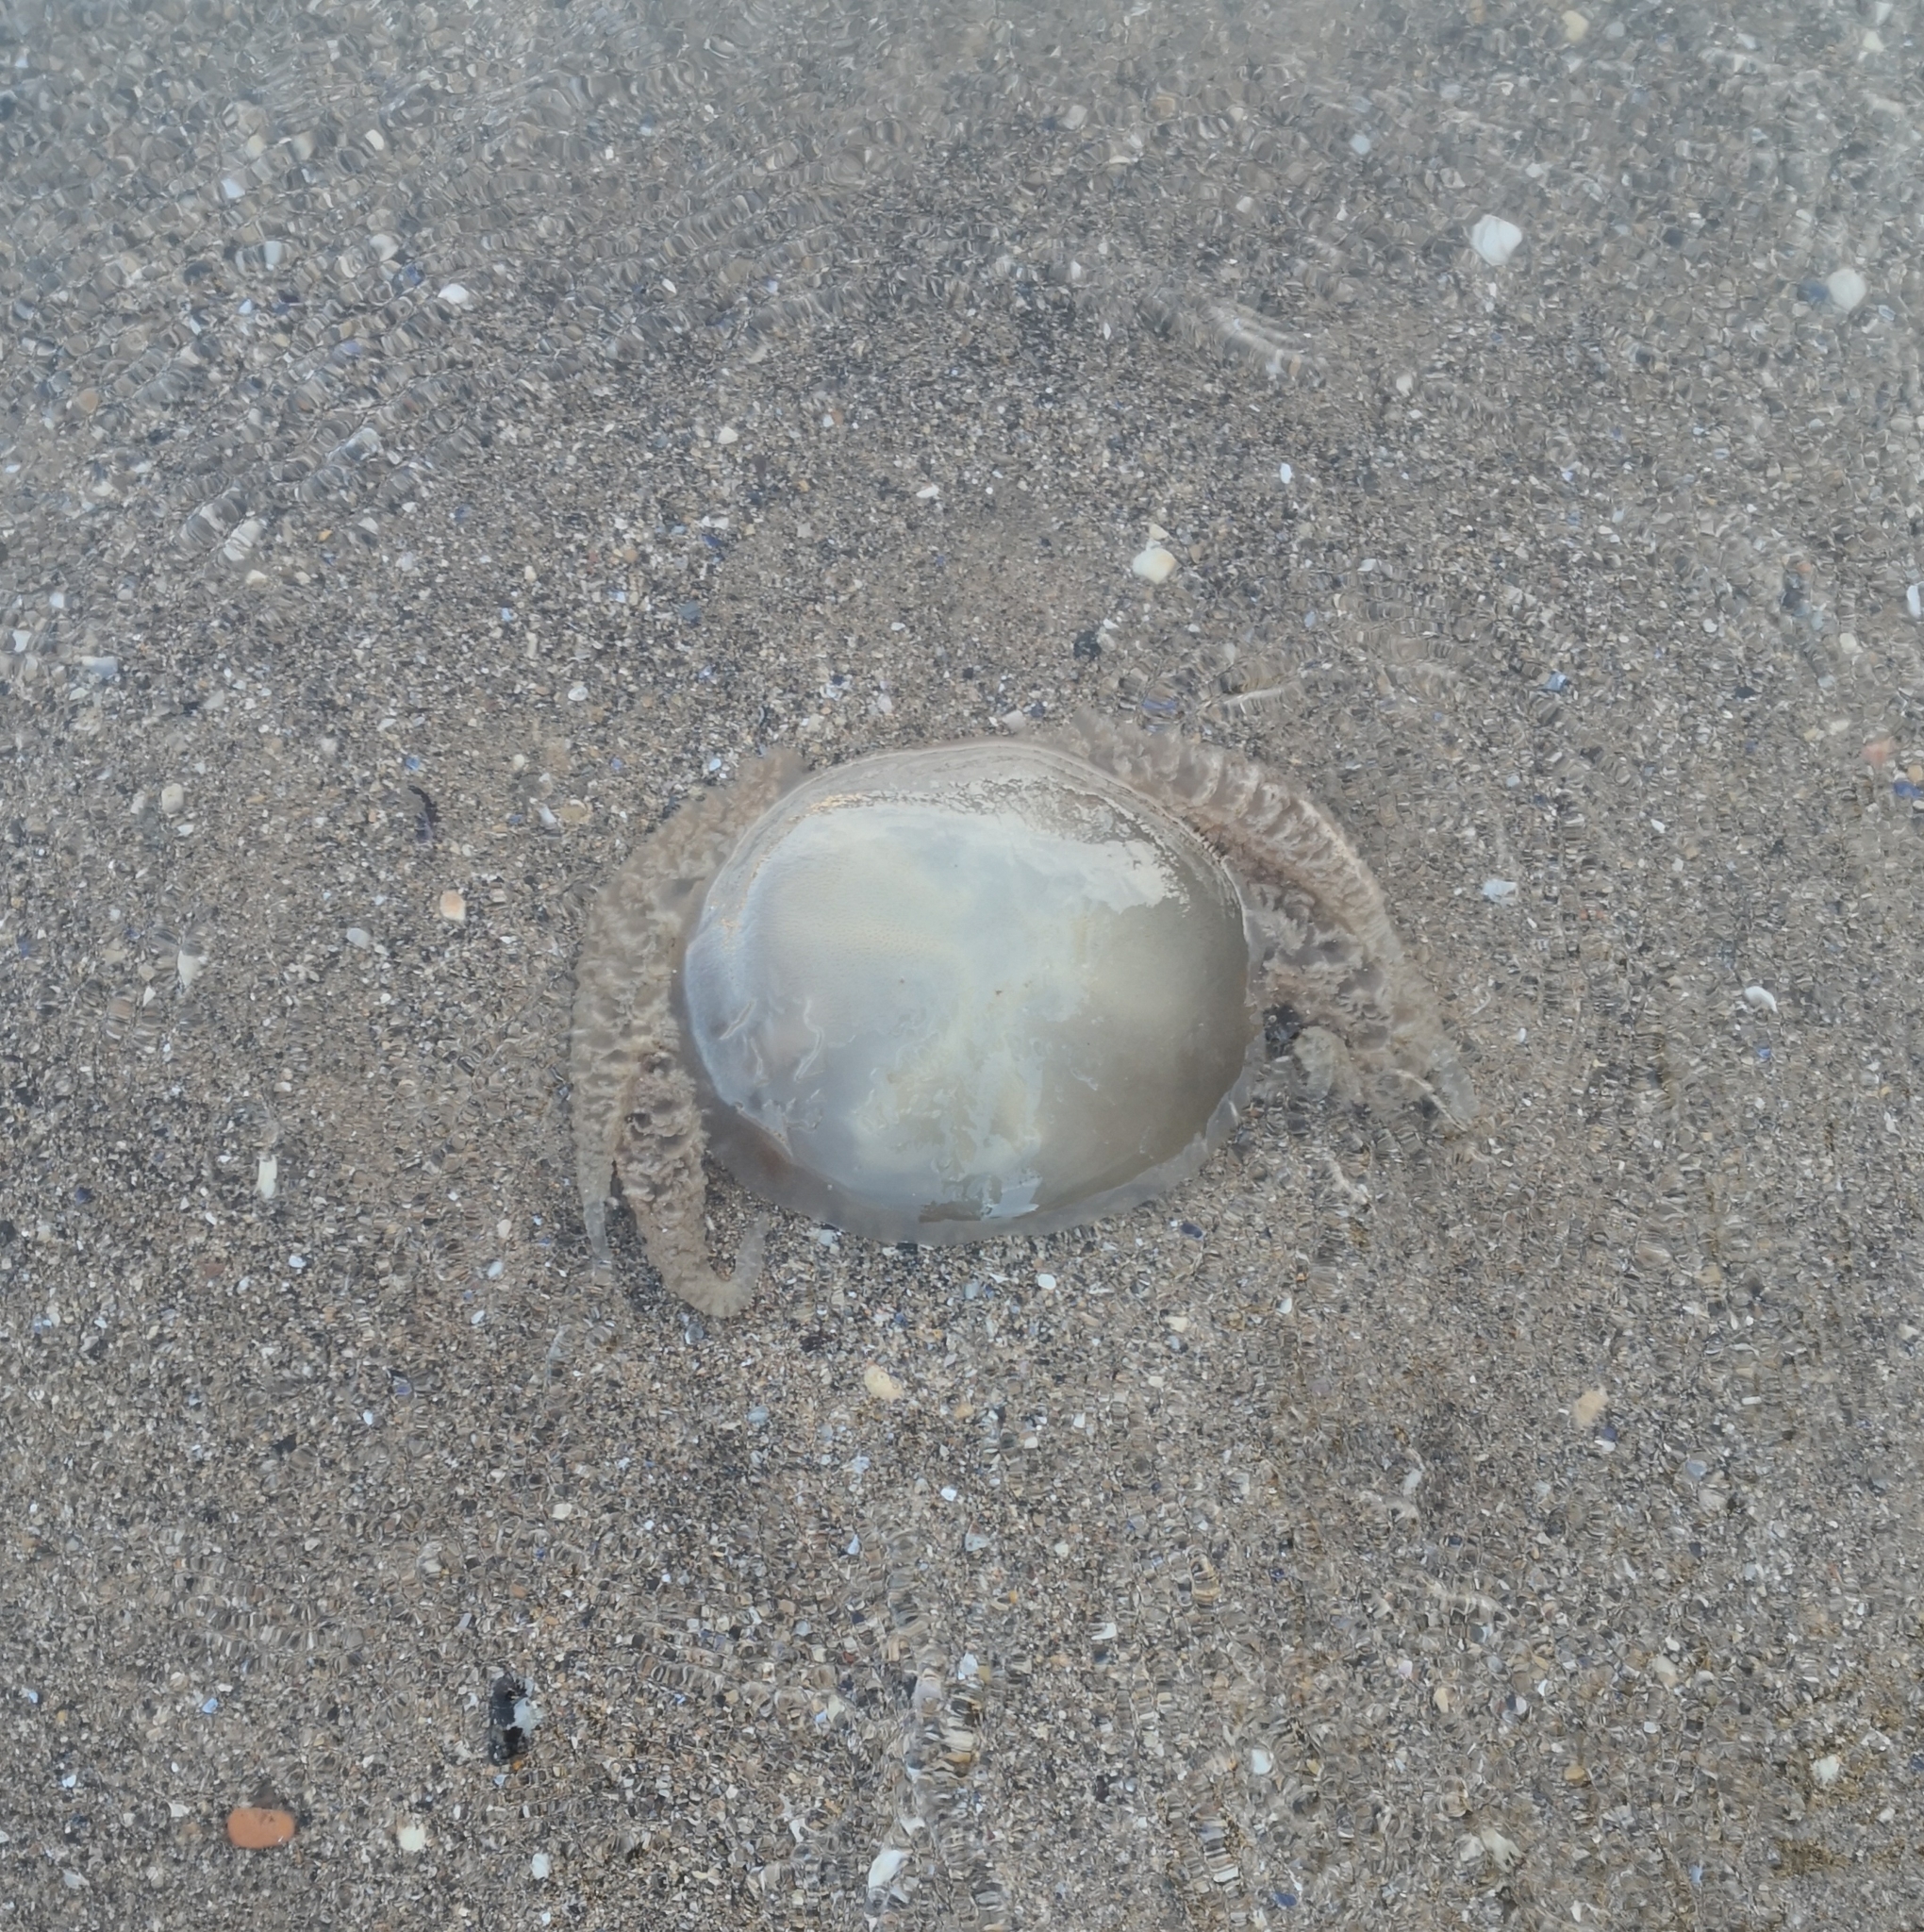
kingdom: Animalia
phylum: Cnidaria
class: Scyphozoa
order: Rhizostomeae
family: Catostylidae
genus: Catostylus
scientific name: Catostylus tagi
